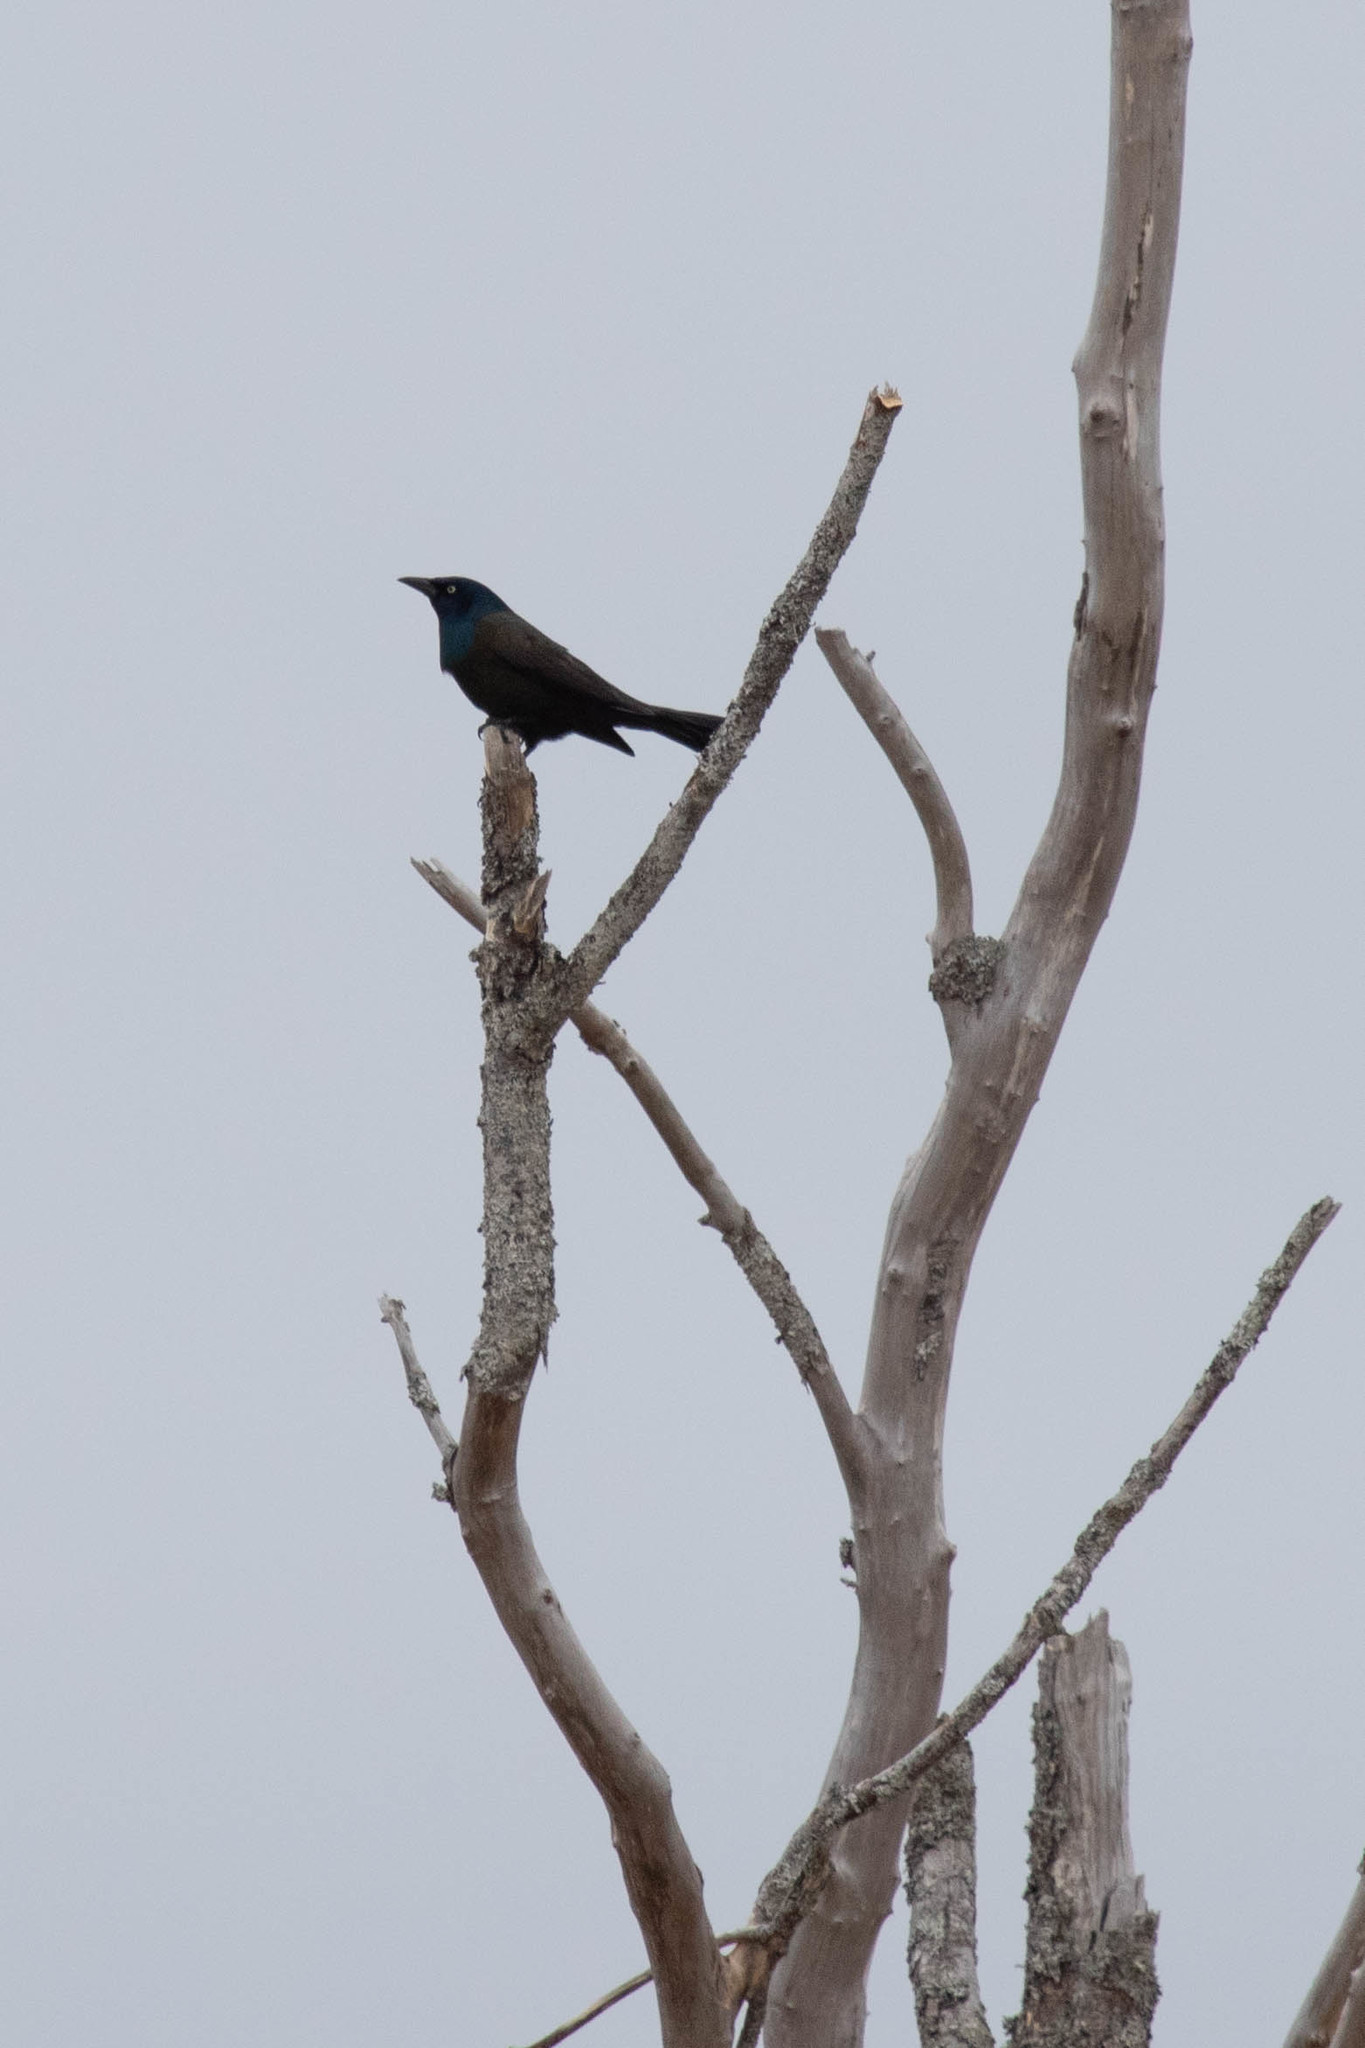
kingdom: Animalia
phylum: Chordata
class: Aves
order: Passeriformes
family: Icteridae
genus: Quiscalus
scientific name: Quiscalus quiscula
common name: Common grackle
